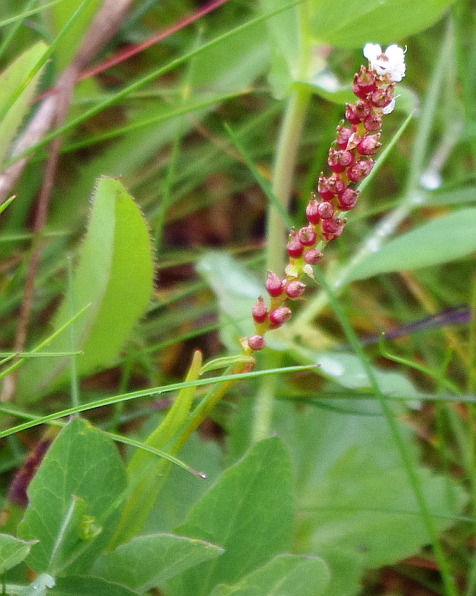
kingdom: Plantae
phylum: Tracheophyta
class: Magnoliopsida
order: Caryophyllales
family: Polygonaceae
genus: Bistorta
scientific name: Bistorta vivipara
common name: Alpine bistort
